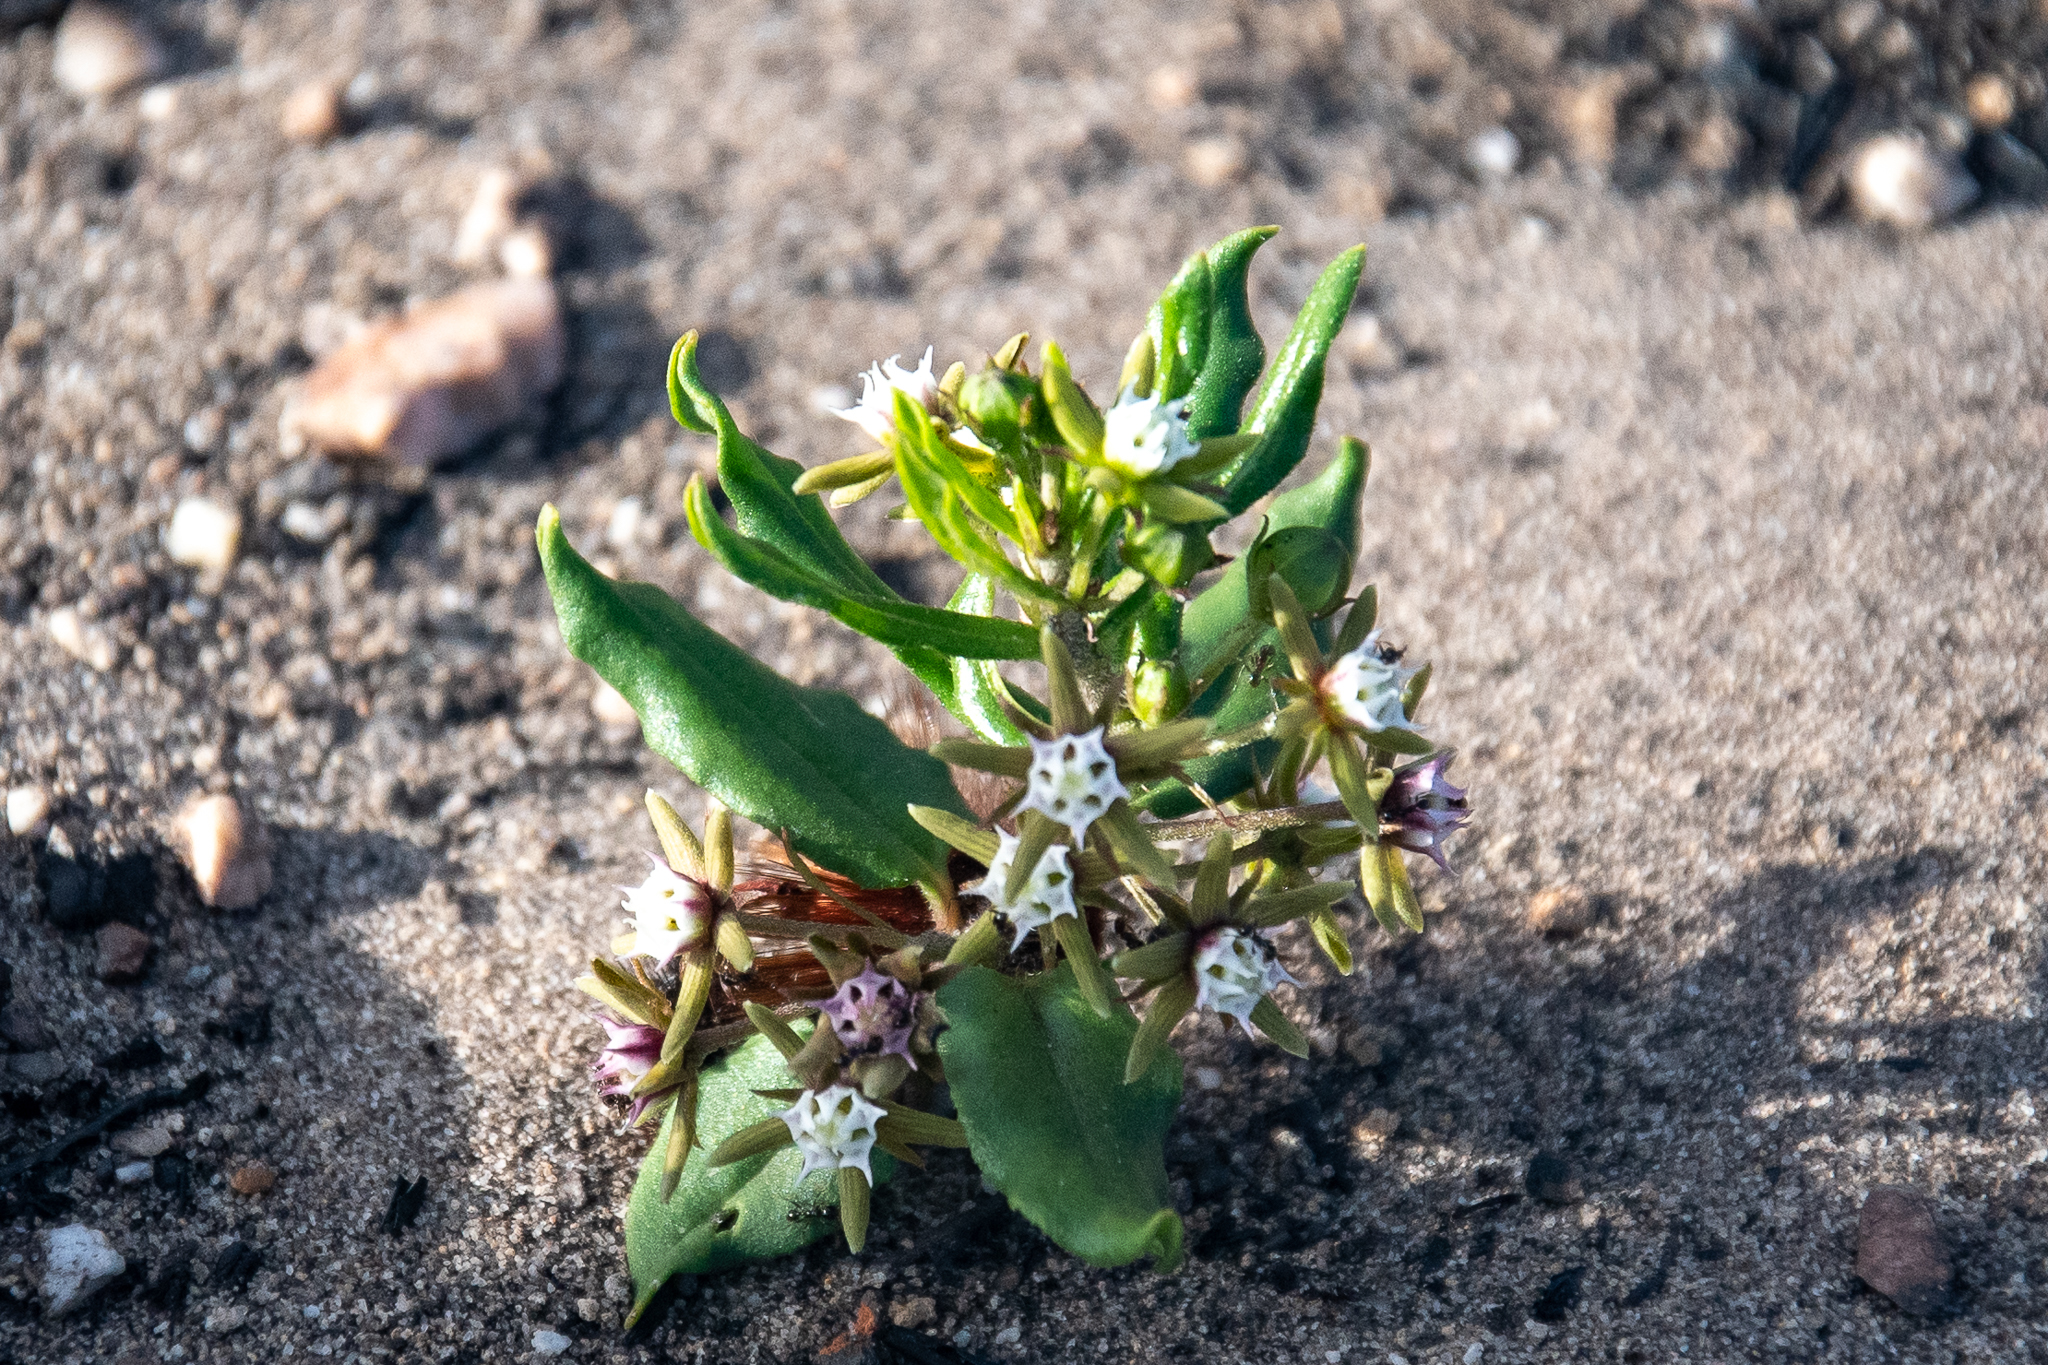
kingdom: Plantae
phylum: Tracheophyta
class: Magnoliopsida
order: Gentianales
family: Apocynaceae
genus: Aspidoglossum
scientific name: Aspidoglossum heterophyllum
